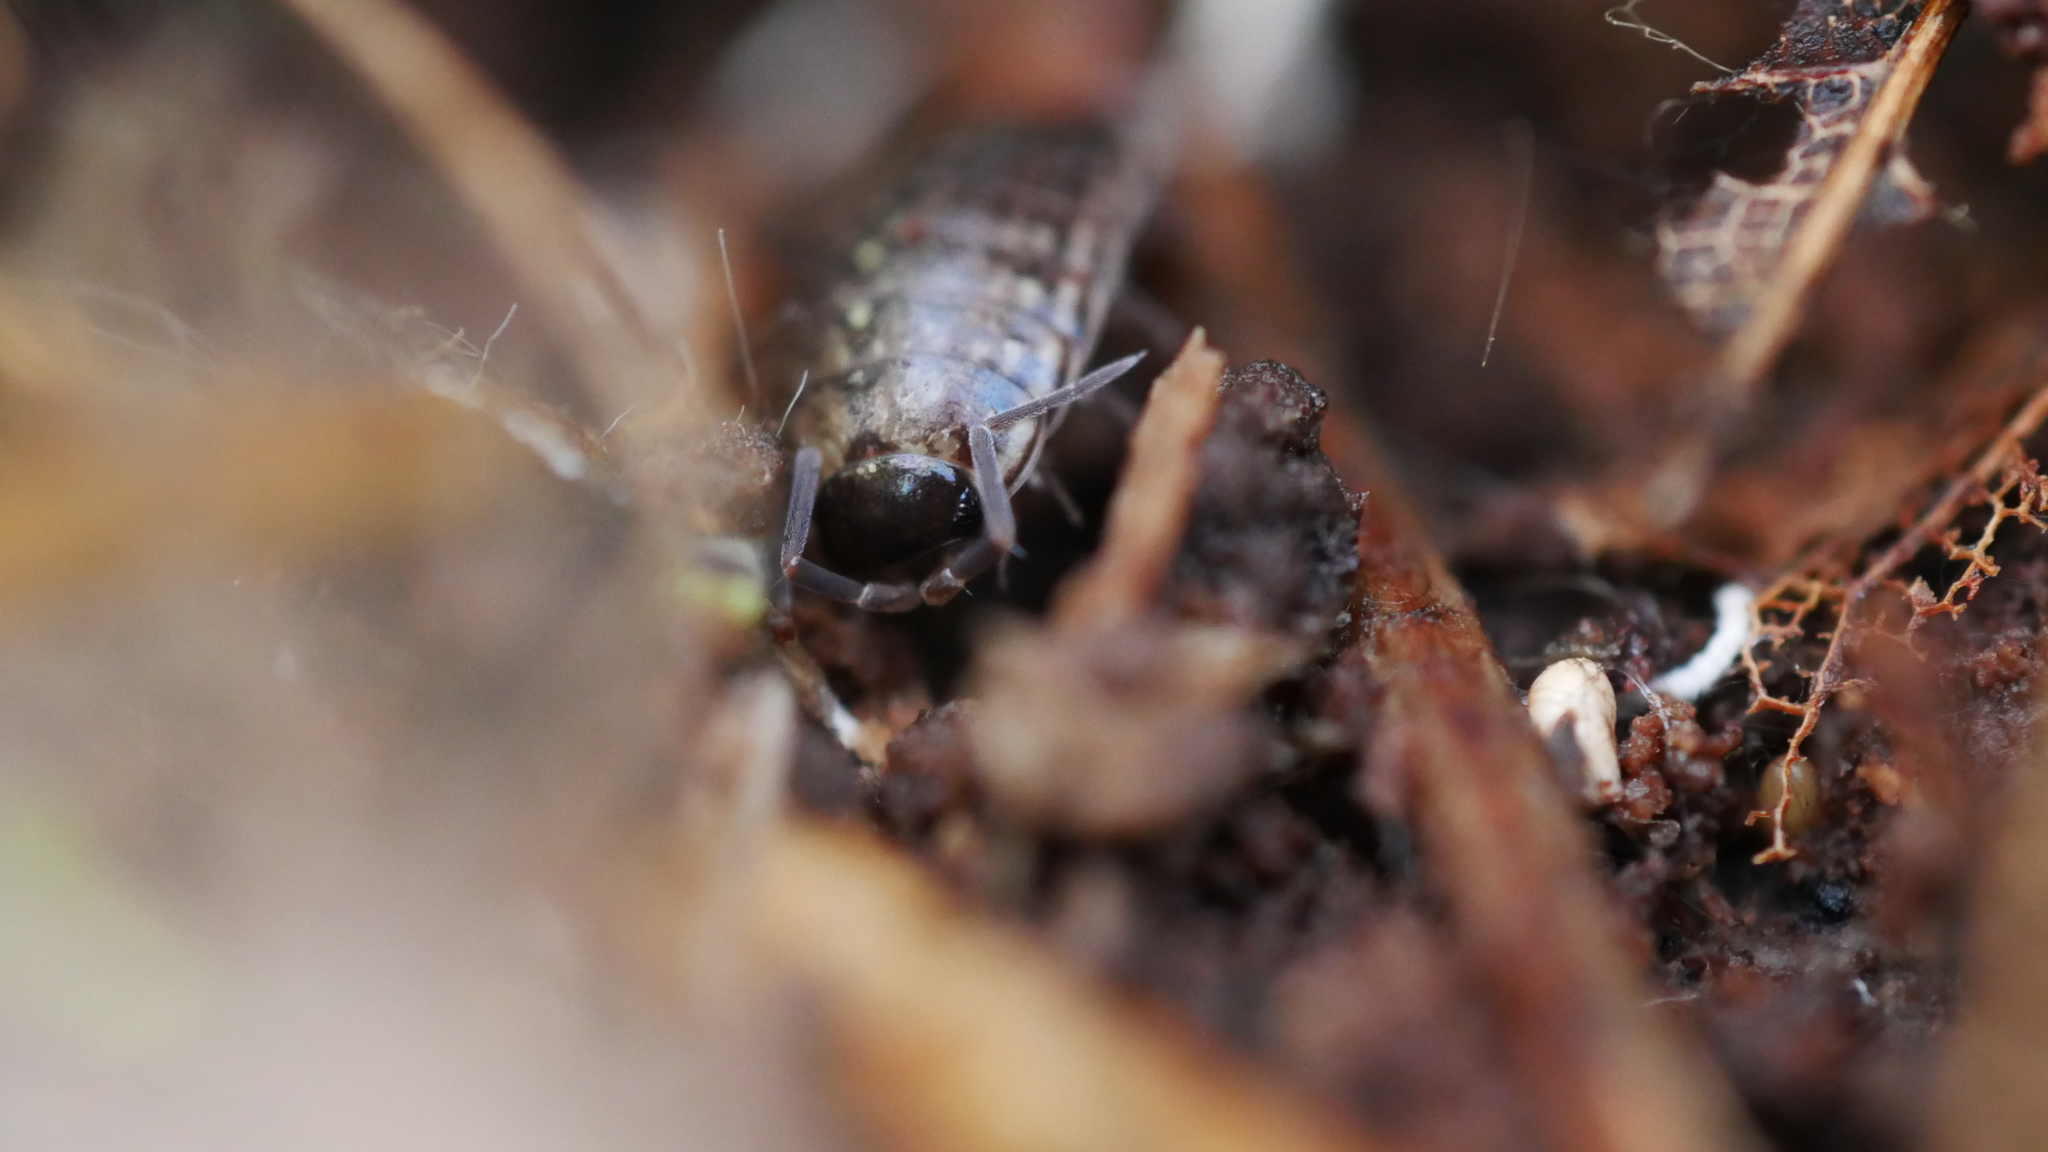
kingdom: Animalia
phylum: Arthropoda
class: Malacostraca
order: Isopoda
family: Philosciidae
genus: Philoscia
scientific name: Philoscia muscorum
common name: Common striped woodlouse
